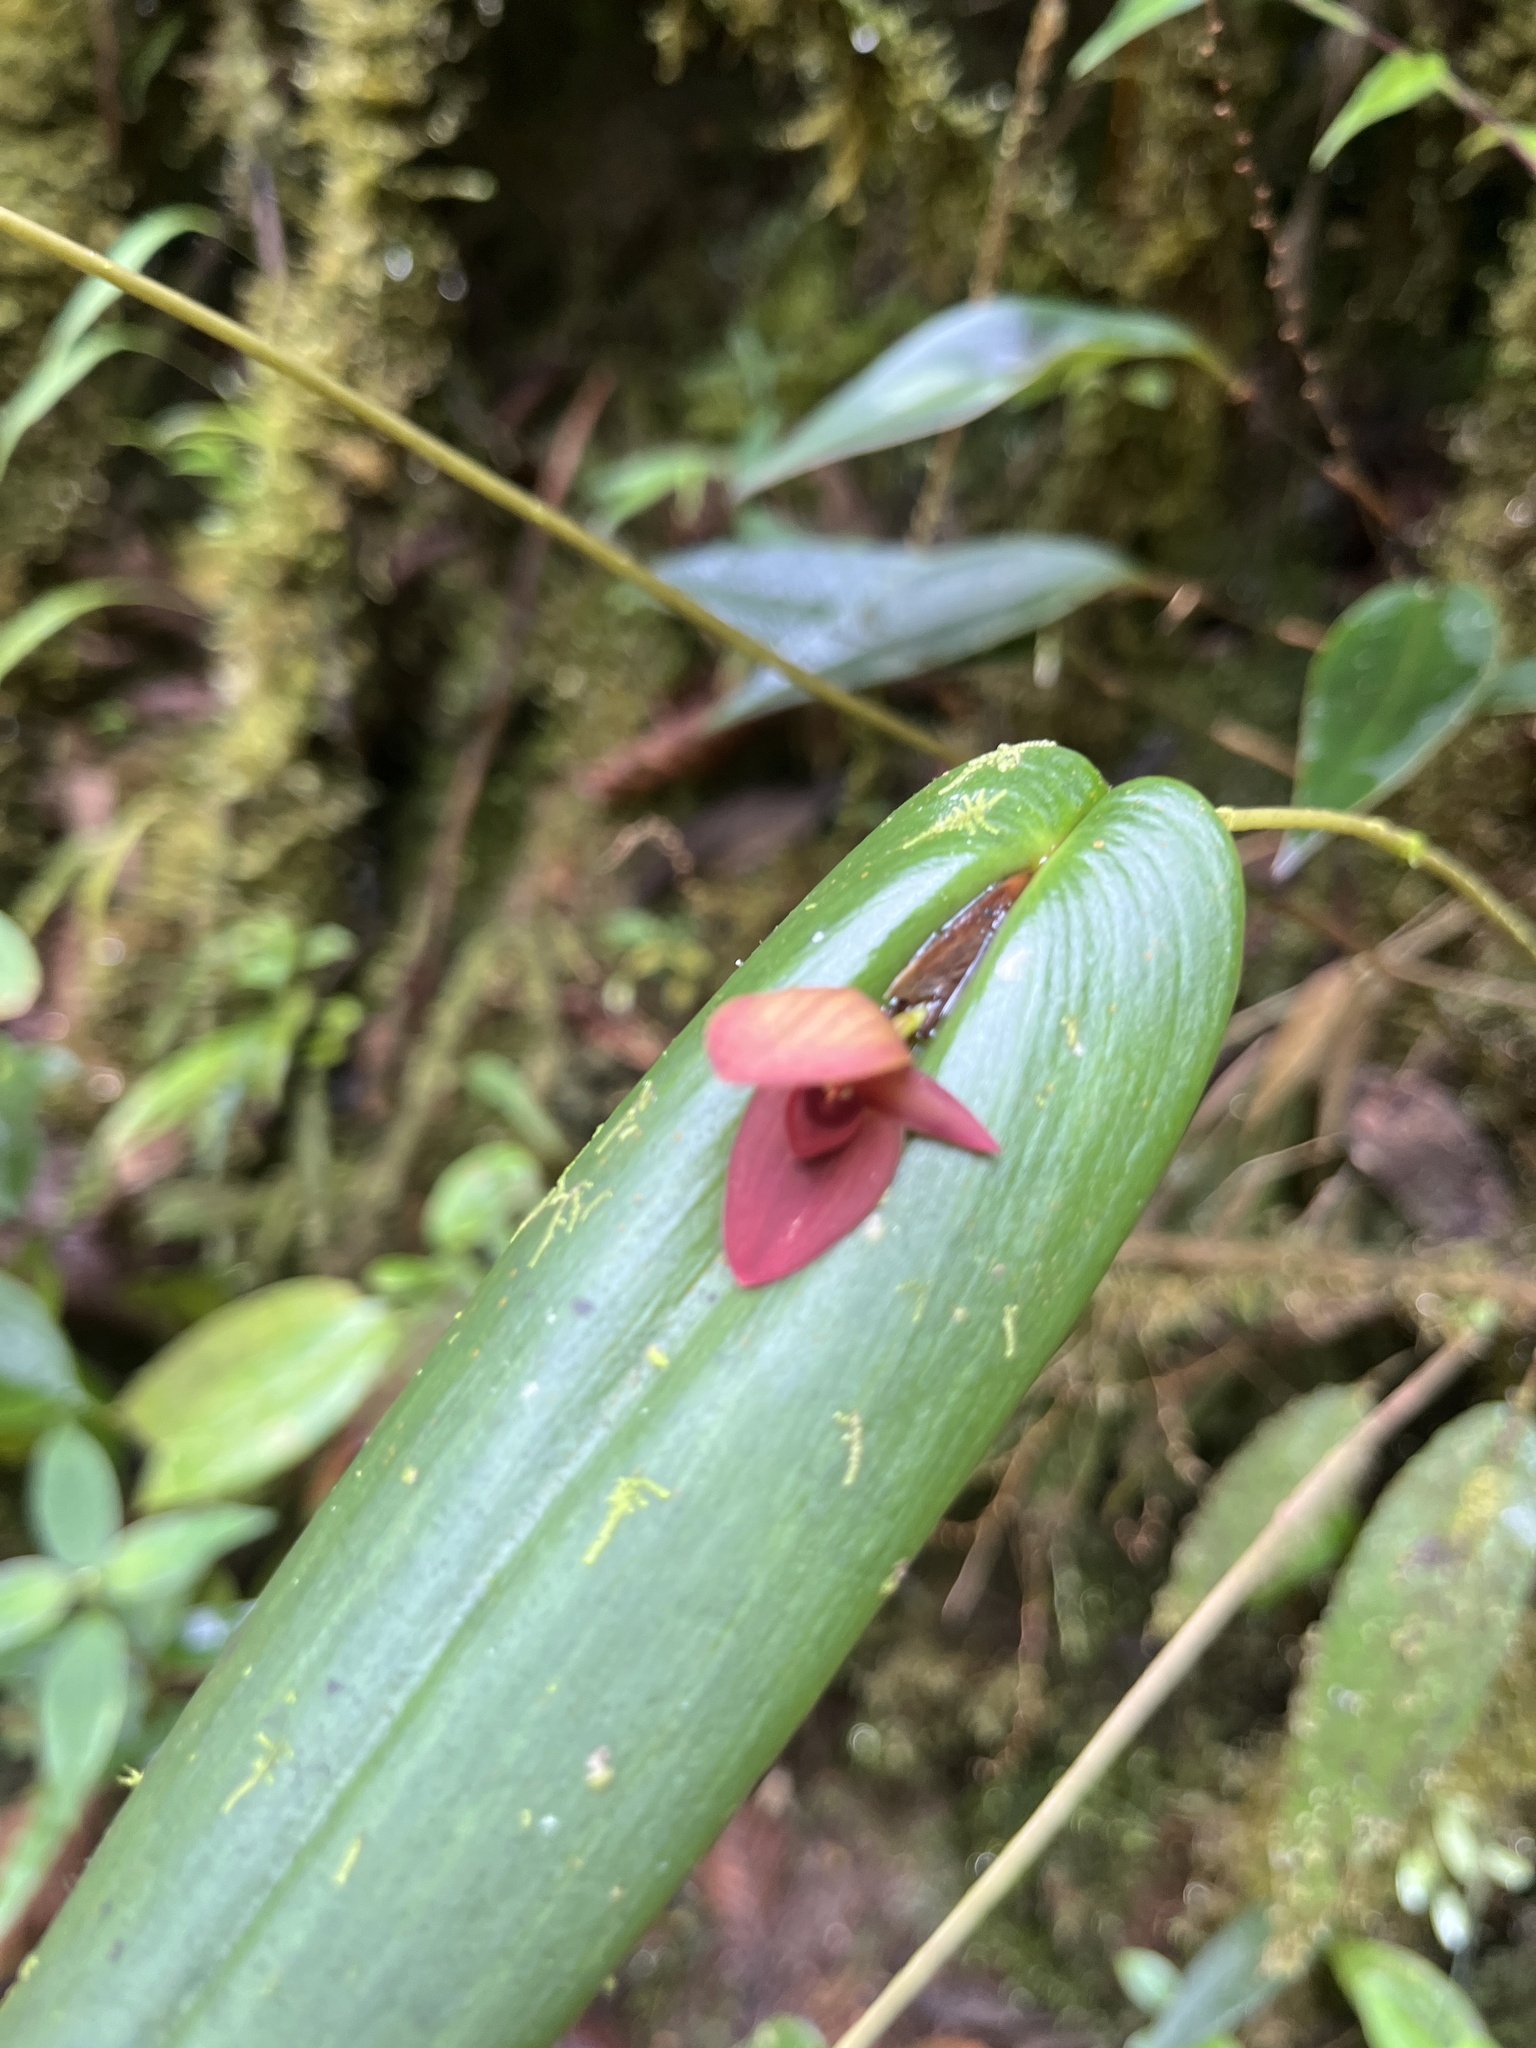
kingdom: Plantae
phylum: Tracheophyta
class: Liliopsida
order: Asparagales
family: Orchidaceae
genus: Pleurothallis
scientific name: Pleurothallis dewildei
